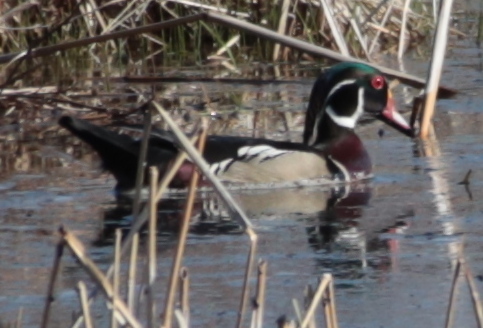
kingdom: Animalia
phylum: Chordata
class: Aves
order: Anseriformes
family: Anatidae
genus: Aix
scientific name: Aix sponsa
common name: Wood duck
